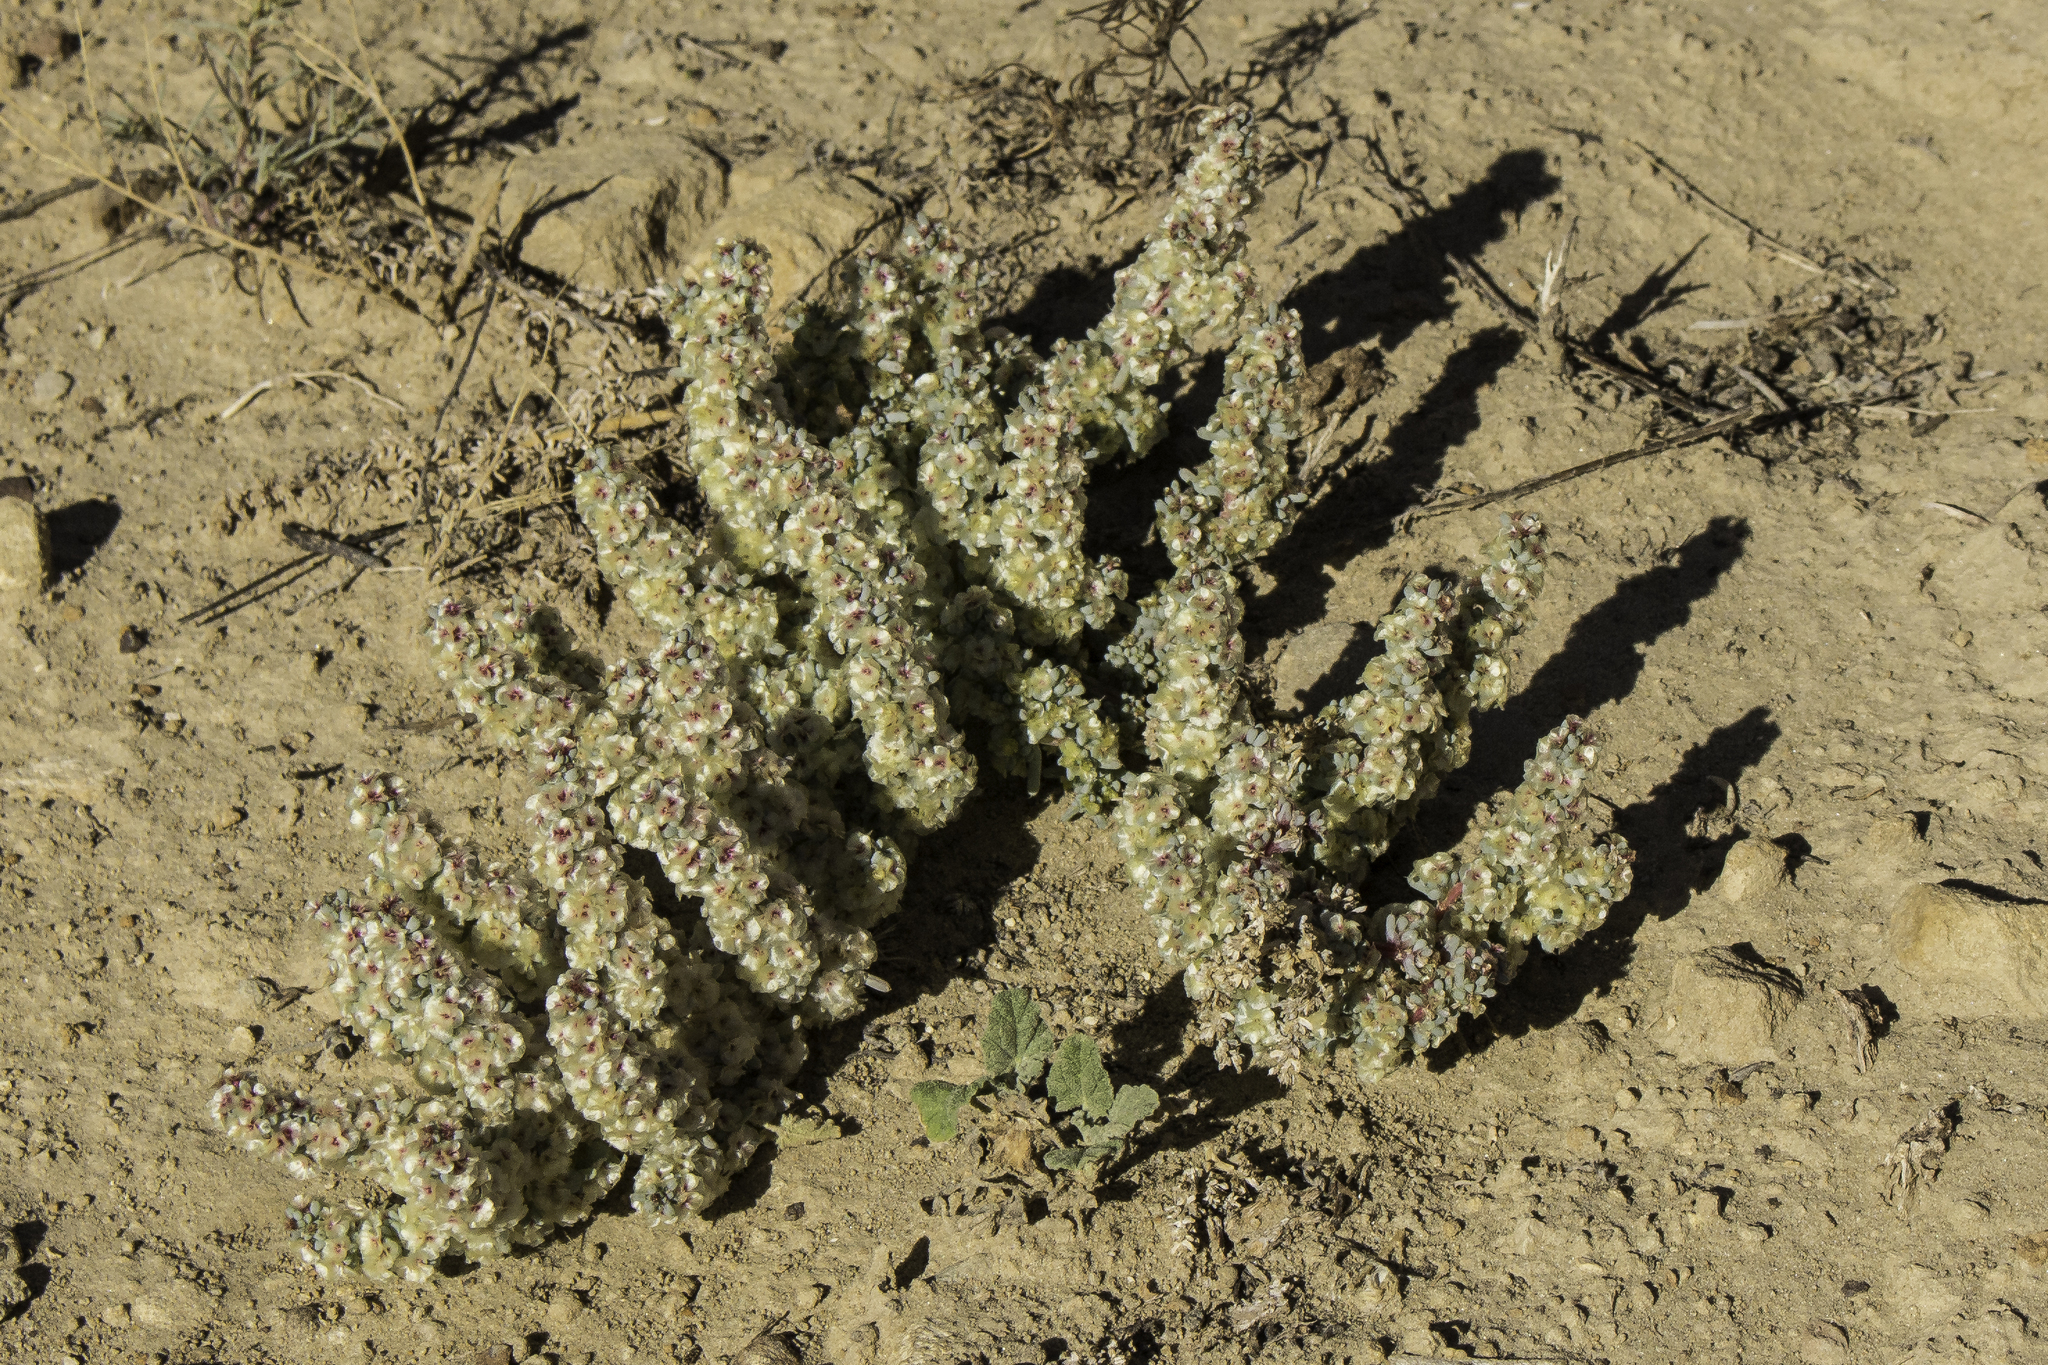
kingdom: Plantae
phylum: Tracheophyta
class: Magnoliopsida
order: Caryophyllales
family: Amaranthaceae
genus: Halogeton
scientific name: Halogeton glomeratus
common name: Saltlover
